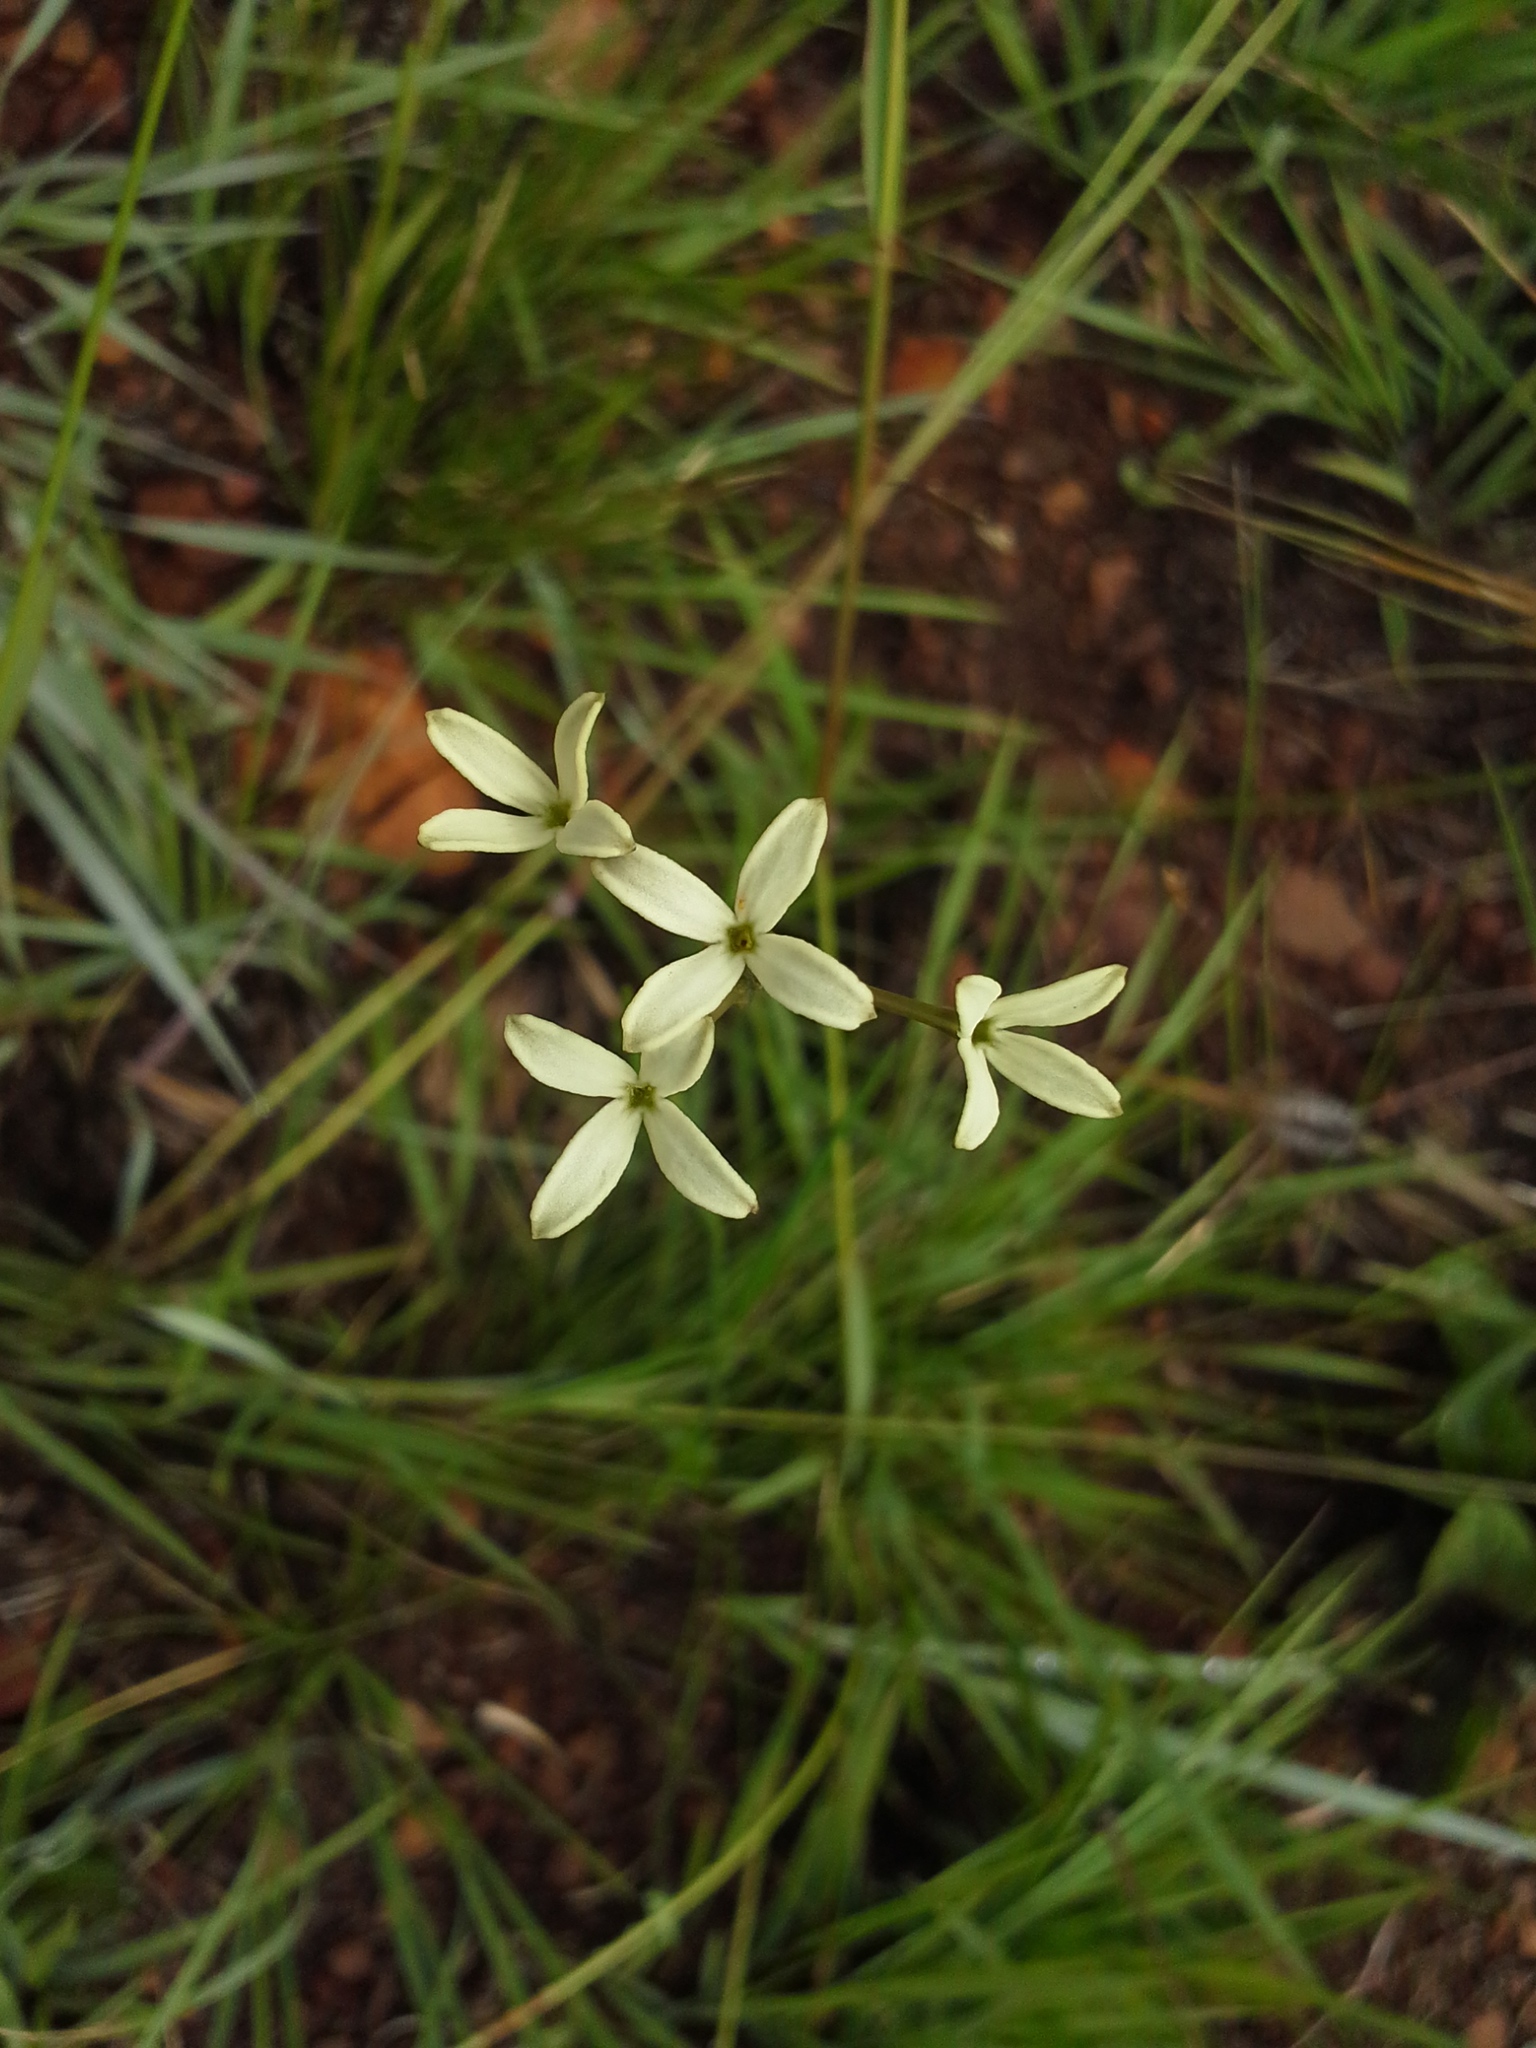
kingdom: Plantae
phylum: Tracheophyta
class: Magnoliopsida
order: Gentianales
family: Rubiaceae
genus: Kohautia
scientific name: Kohautia amatymbica
